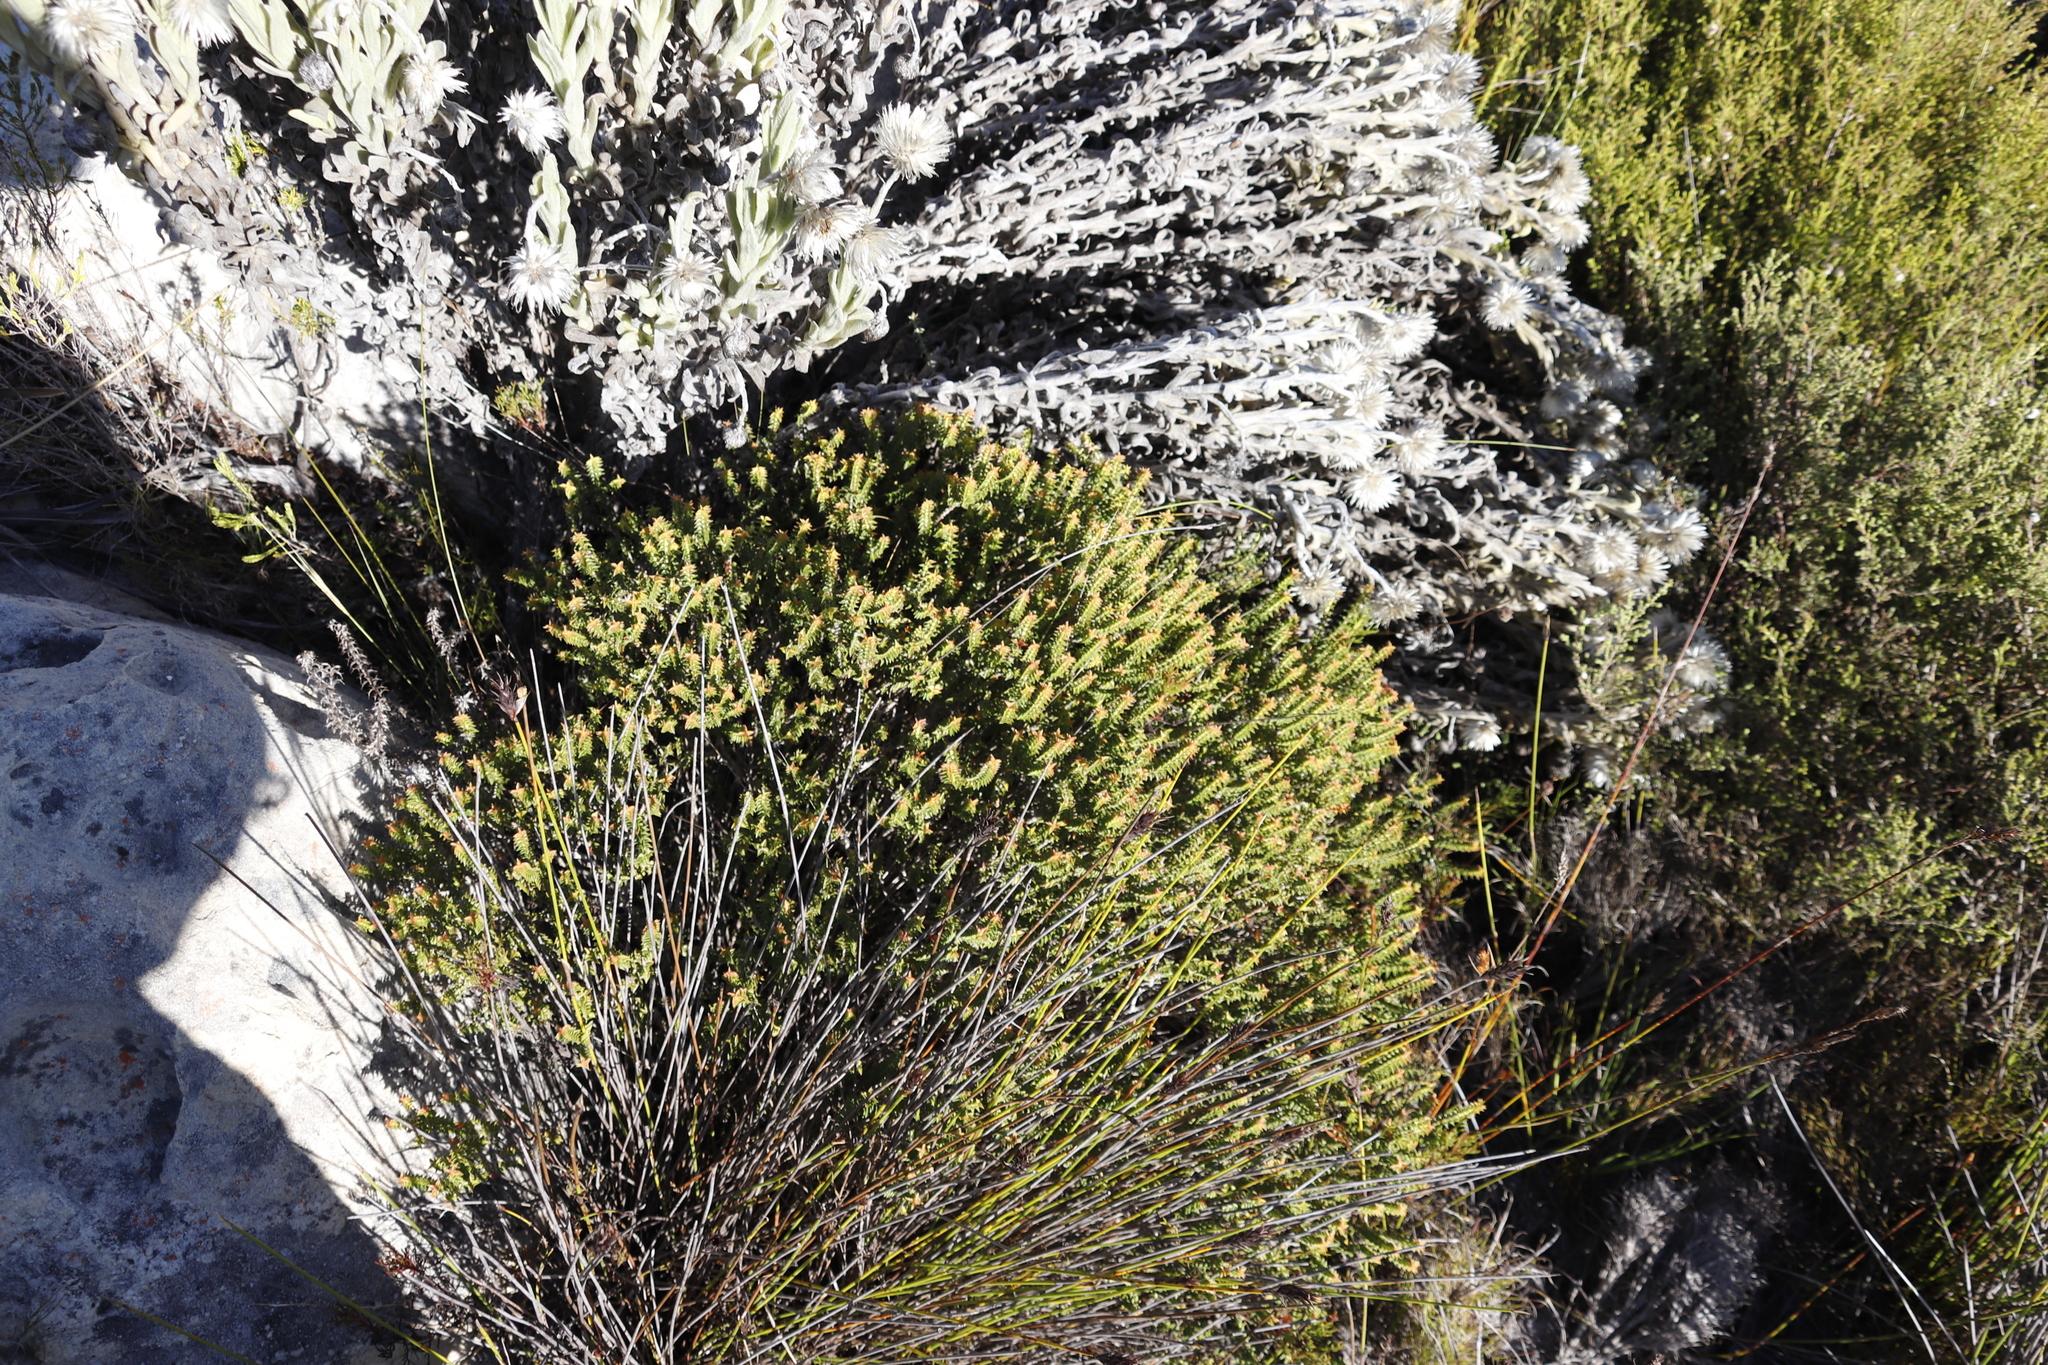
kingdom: Plantae
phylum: Tracheophyta
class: Magnoliopsida
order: Myrtales
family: Penaeaceae
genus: Penaea
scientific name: Penaea mucronata
